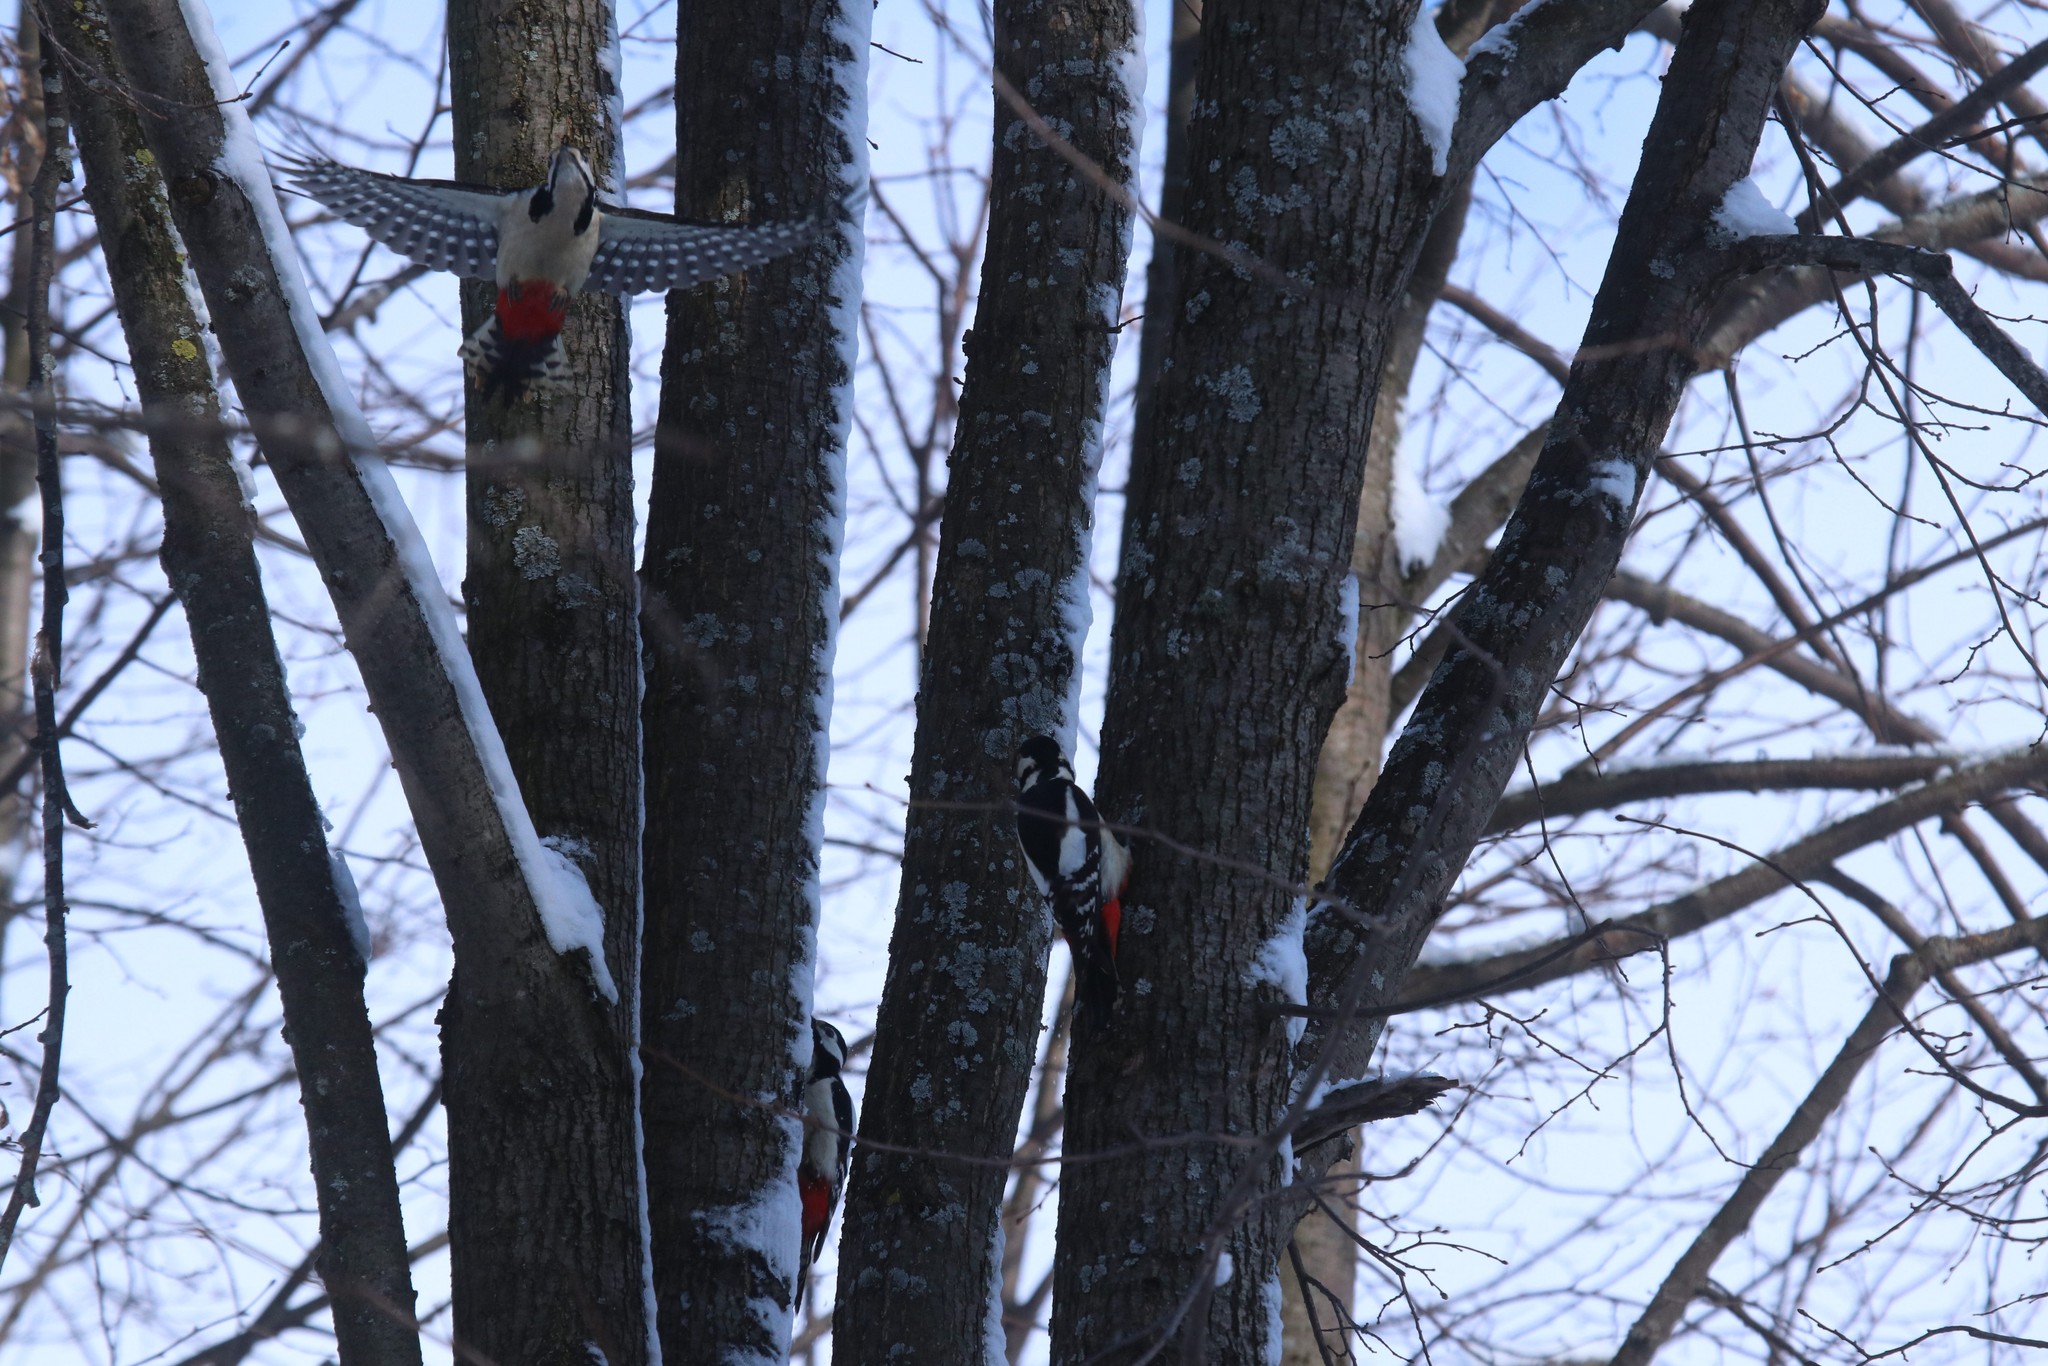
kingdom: Animalia
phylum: Chordata
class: Aves
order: Piciformes
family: Picidae
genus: Dendrocopos
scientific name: Dendrocopos major
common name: Great spotted woodpecker
